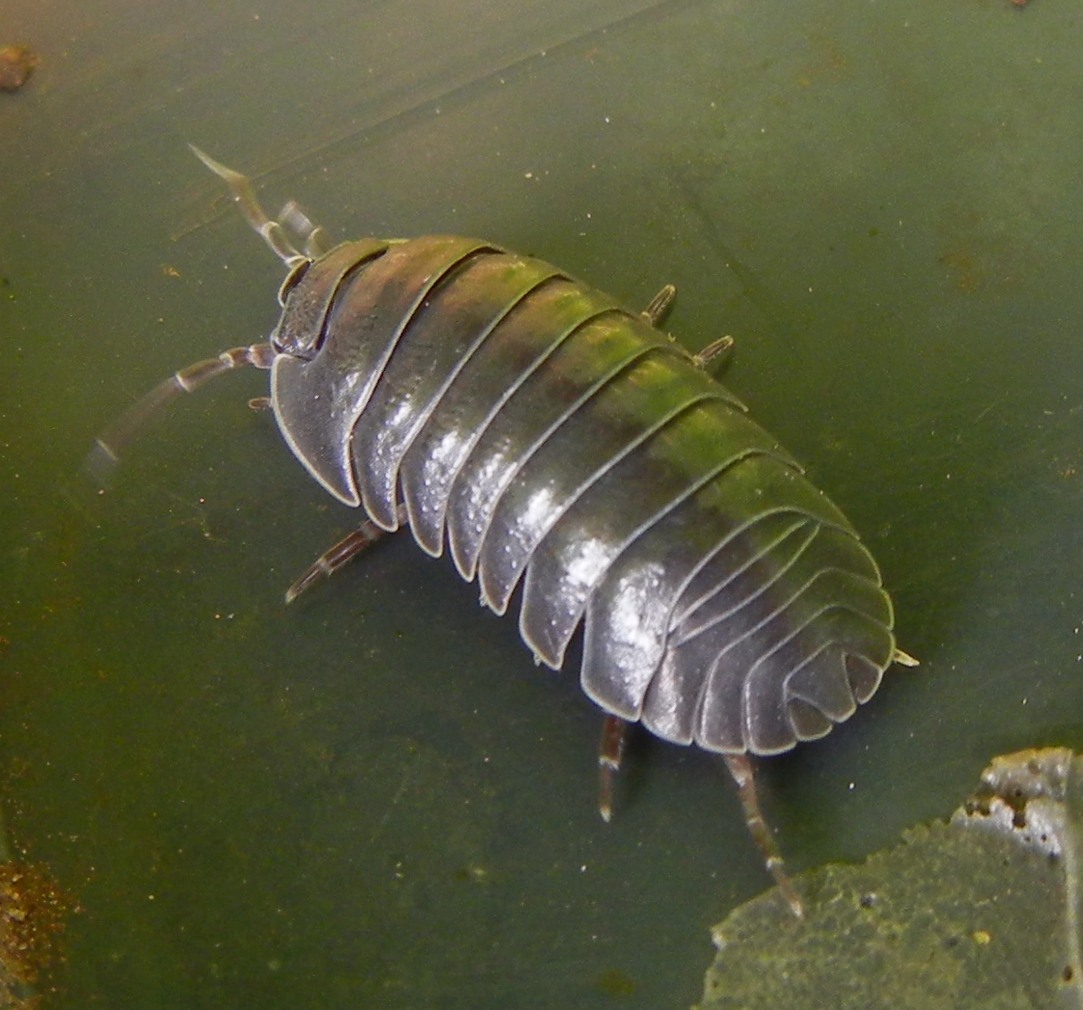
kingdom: Animalia
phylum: Arthropoda
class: Malacostraca
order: Isopoda
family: Armadillidiidae
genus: Armadillidium
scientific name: Armadillidium depressum
